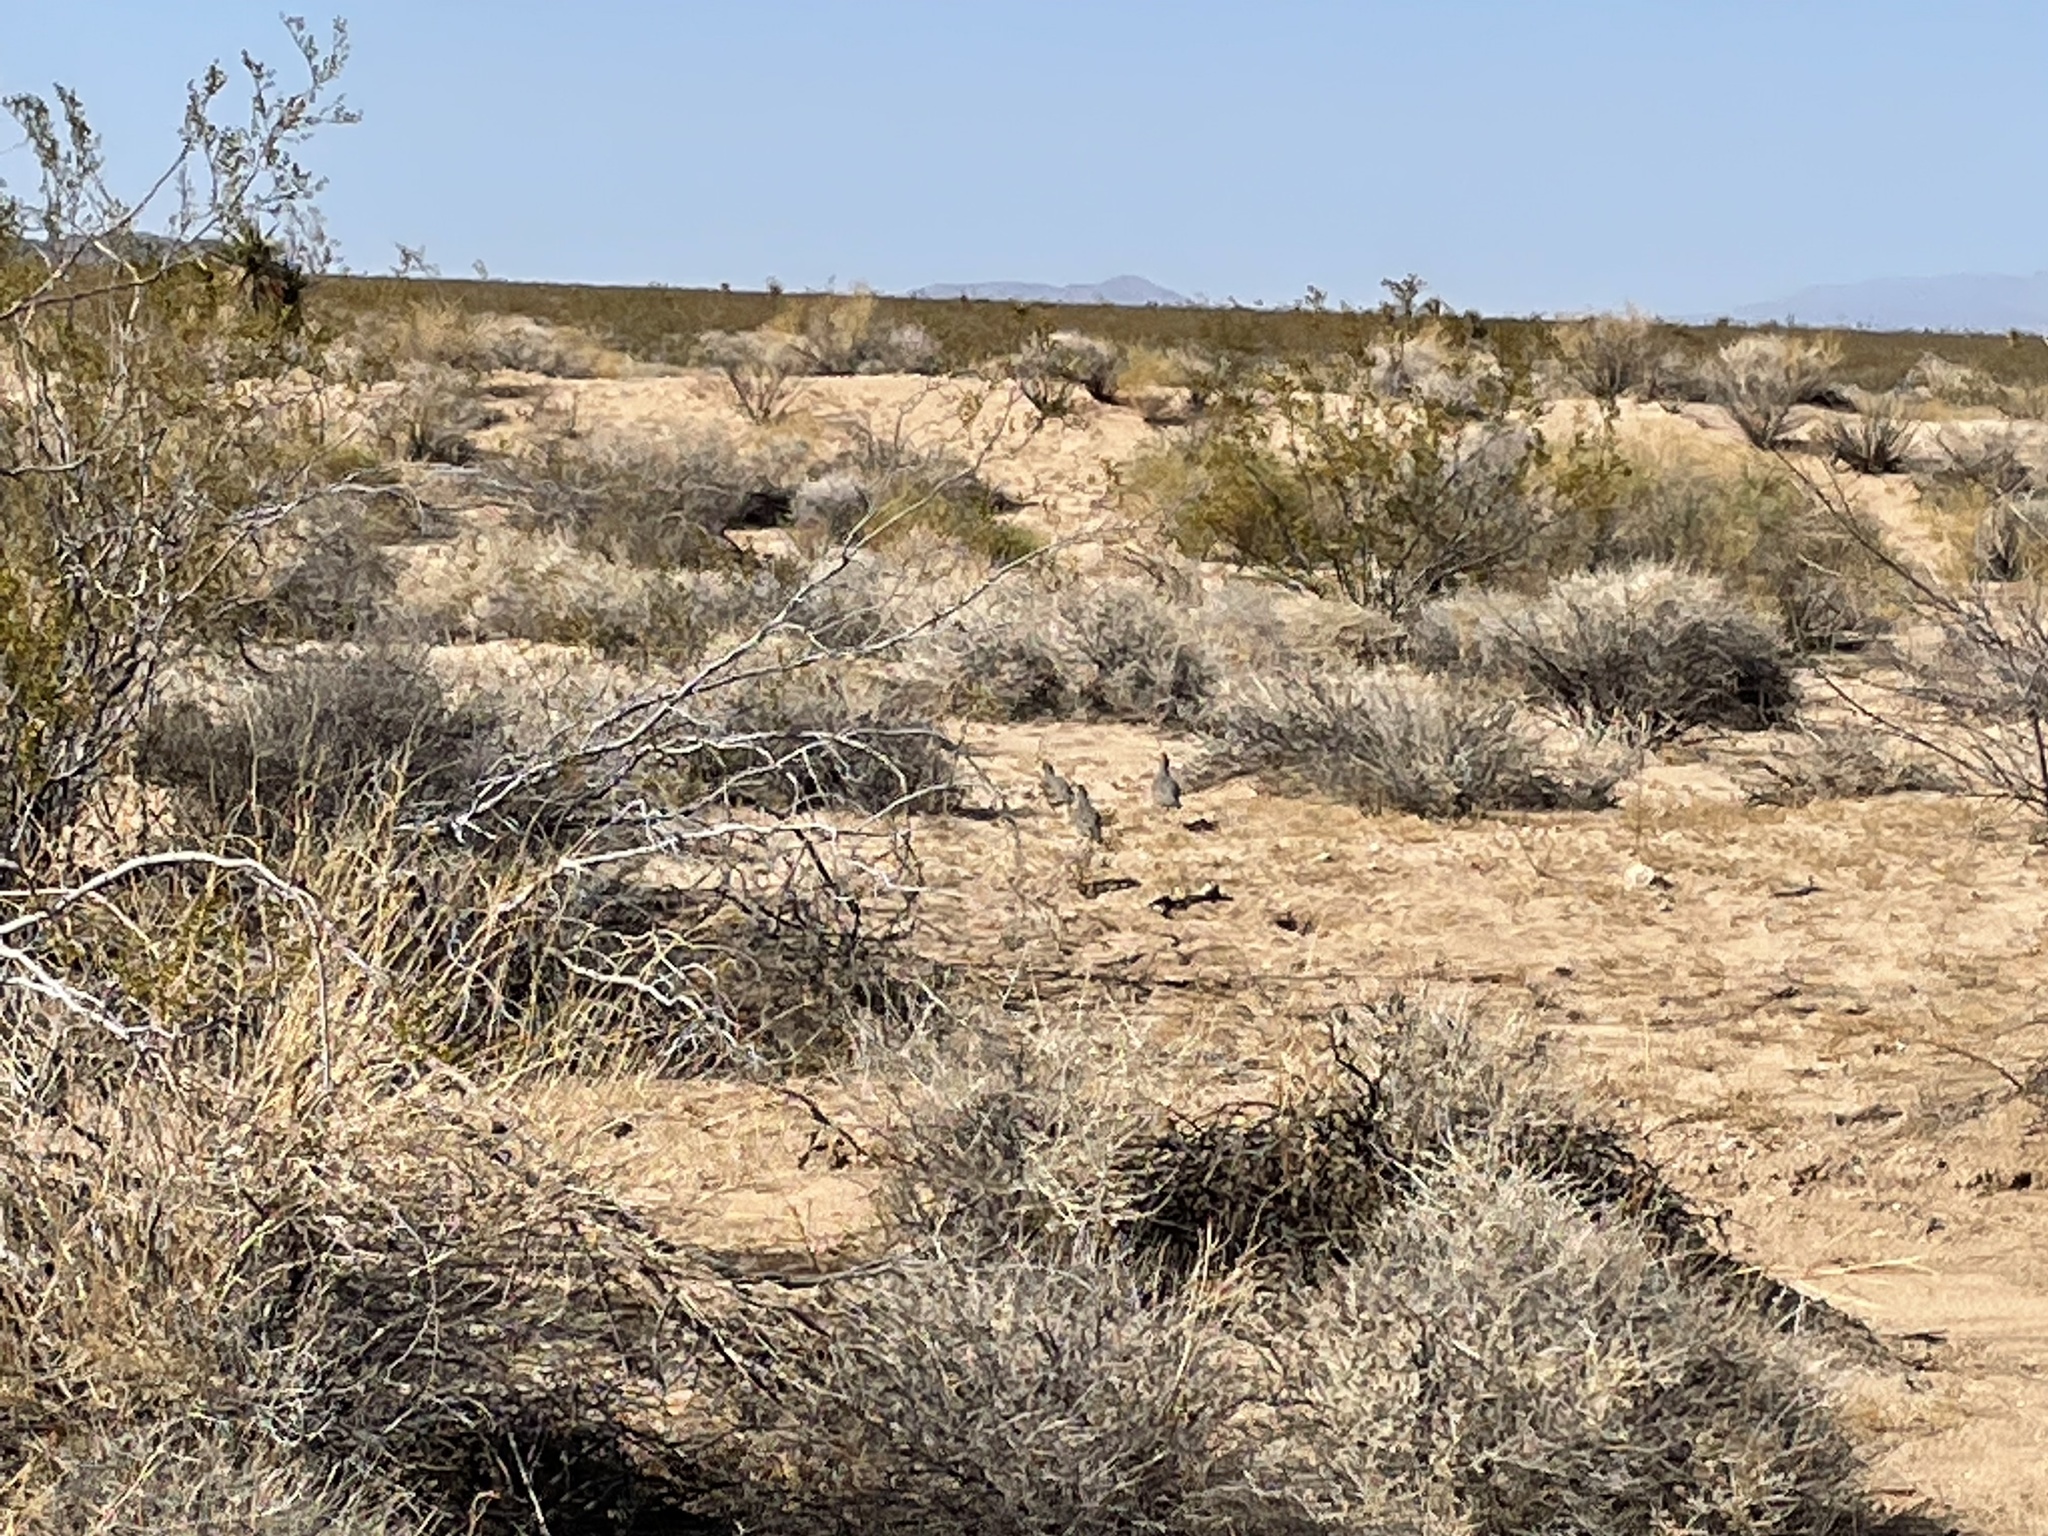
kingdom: Animalia
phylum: Chordata
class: Aves
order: Galliformes
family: Odontophoridae
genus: Callipepla
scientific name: Callipepla gambelii
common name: Gambel's quail
